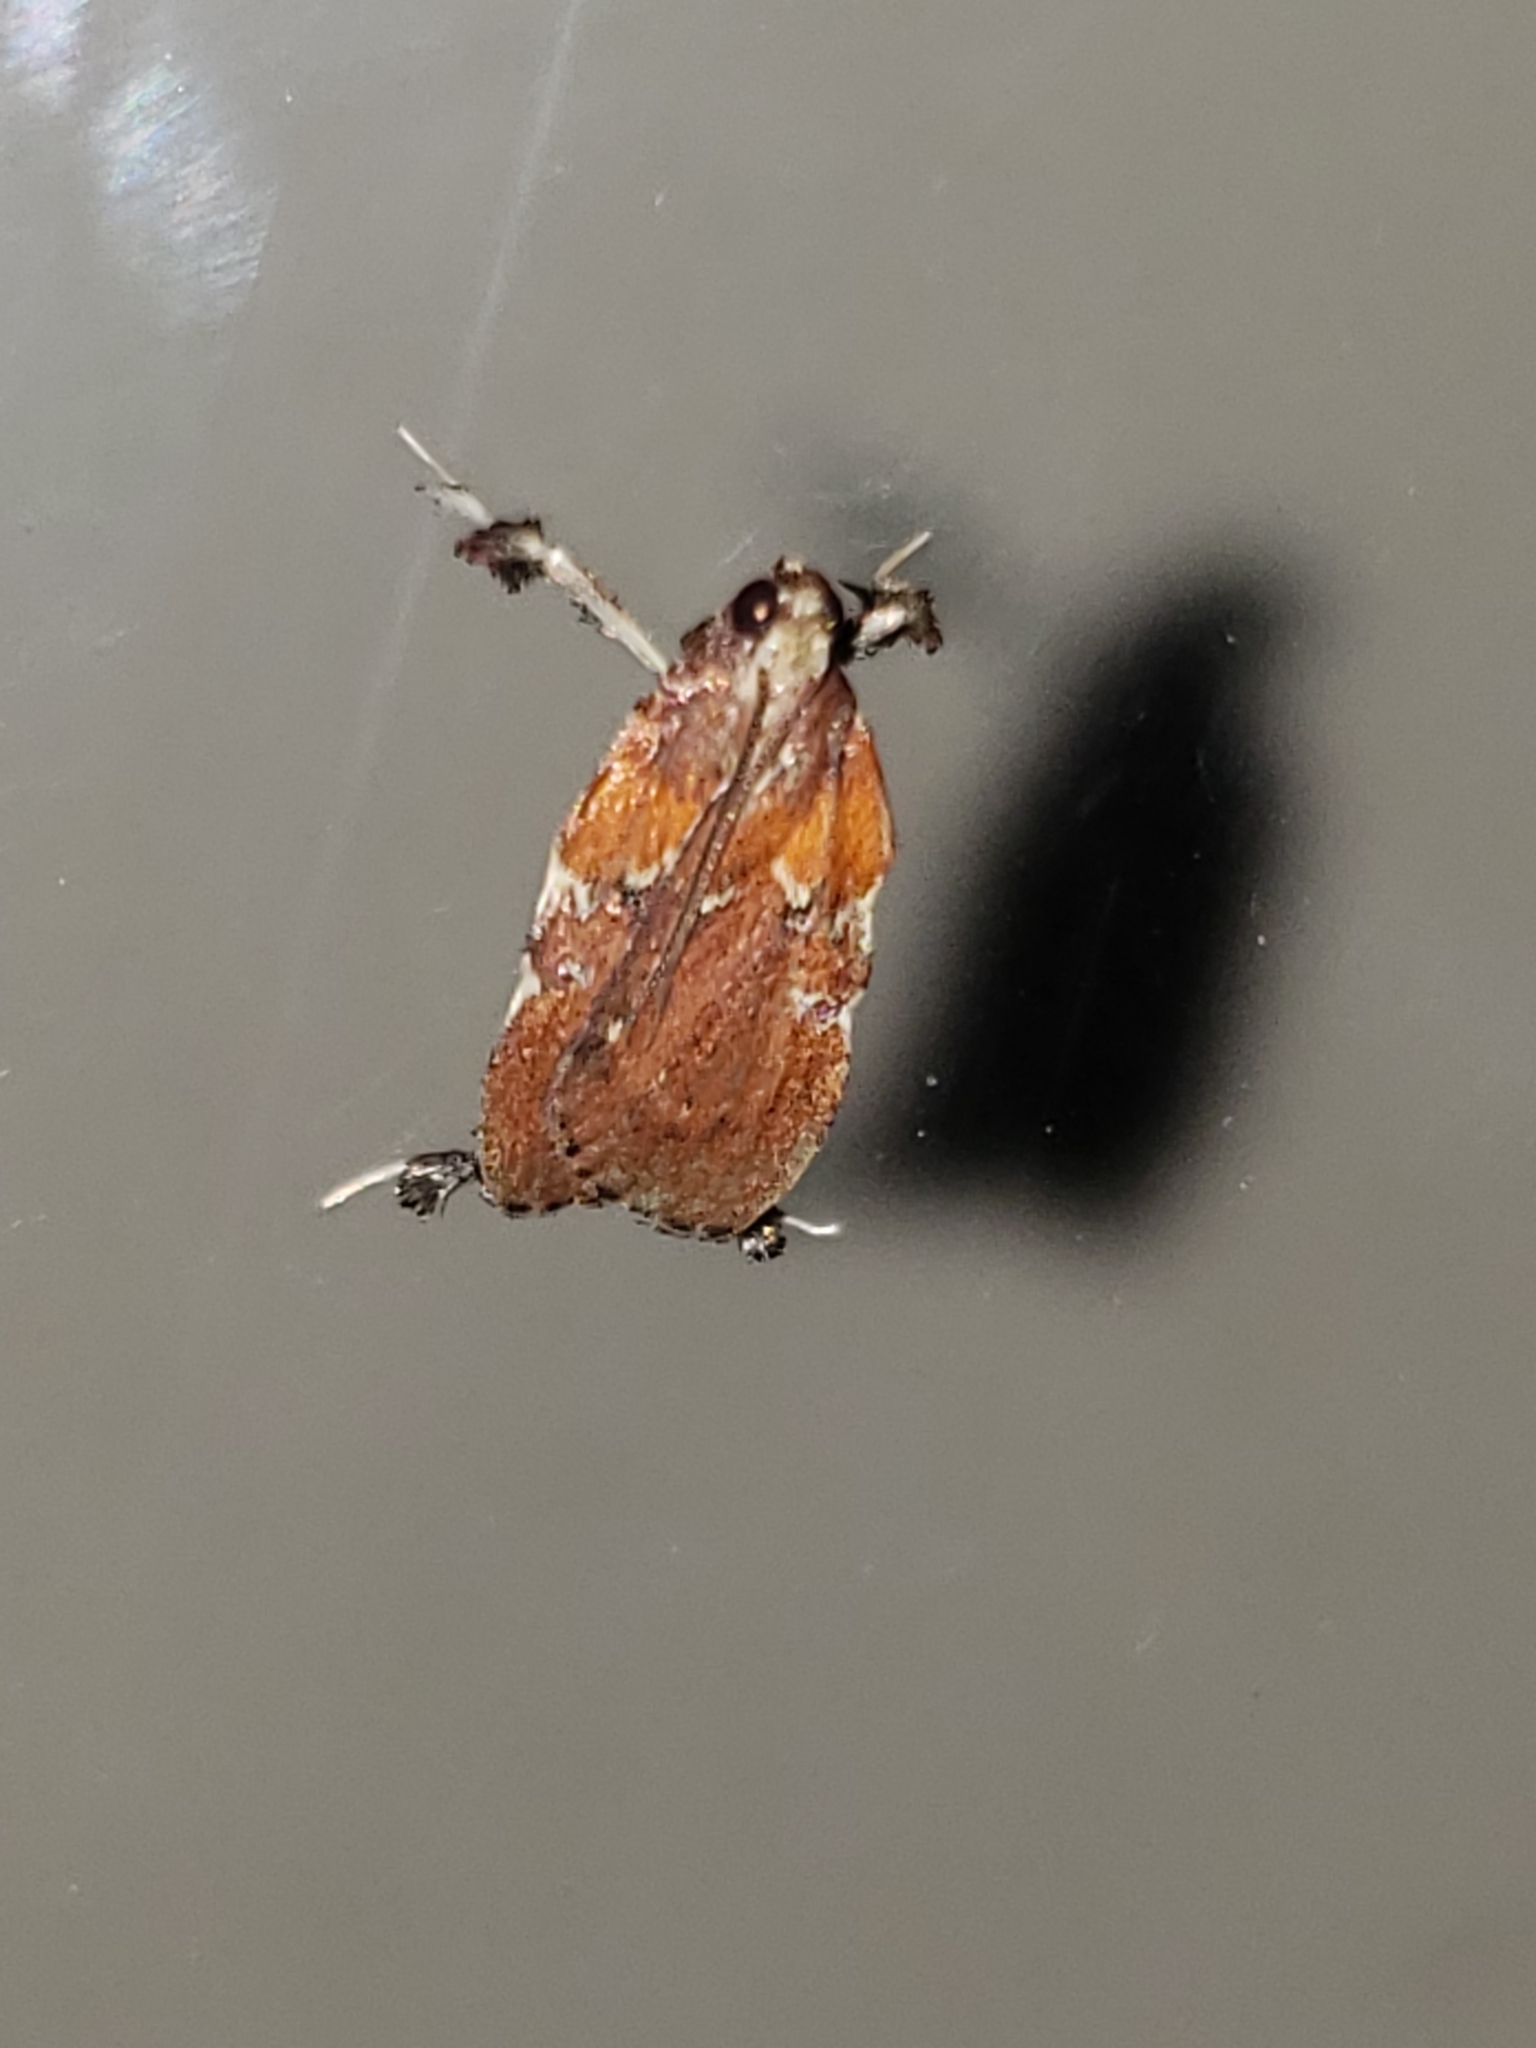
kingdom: Animalia
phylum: Arthropoda
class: Insecta
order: Lepidoptera
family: Pyralidae
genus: Galasa
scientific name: Galasa nigrinodis
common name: Boxwood leaftier moth
